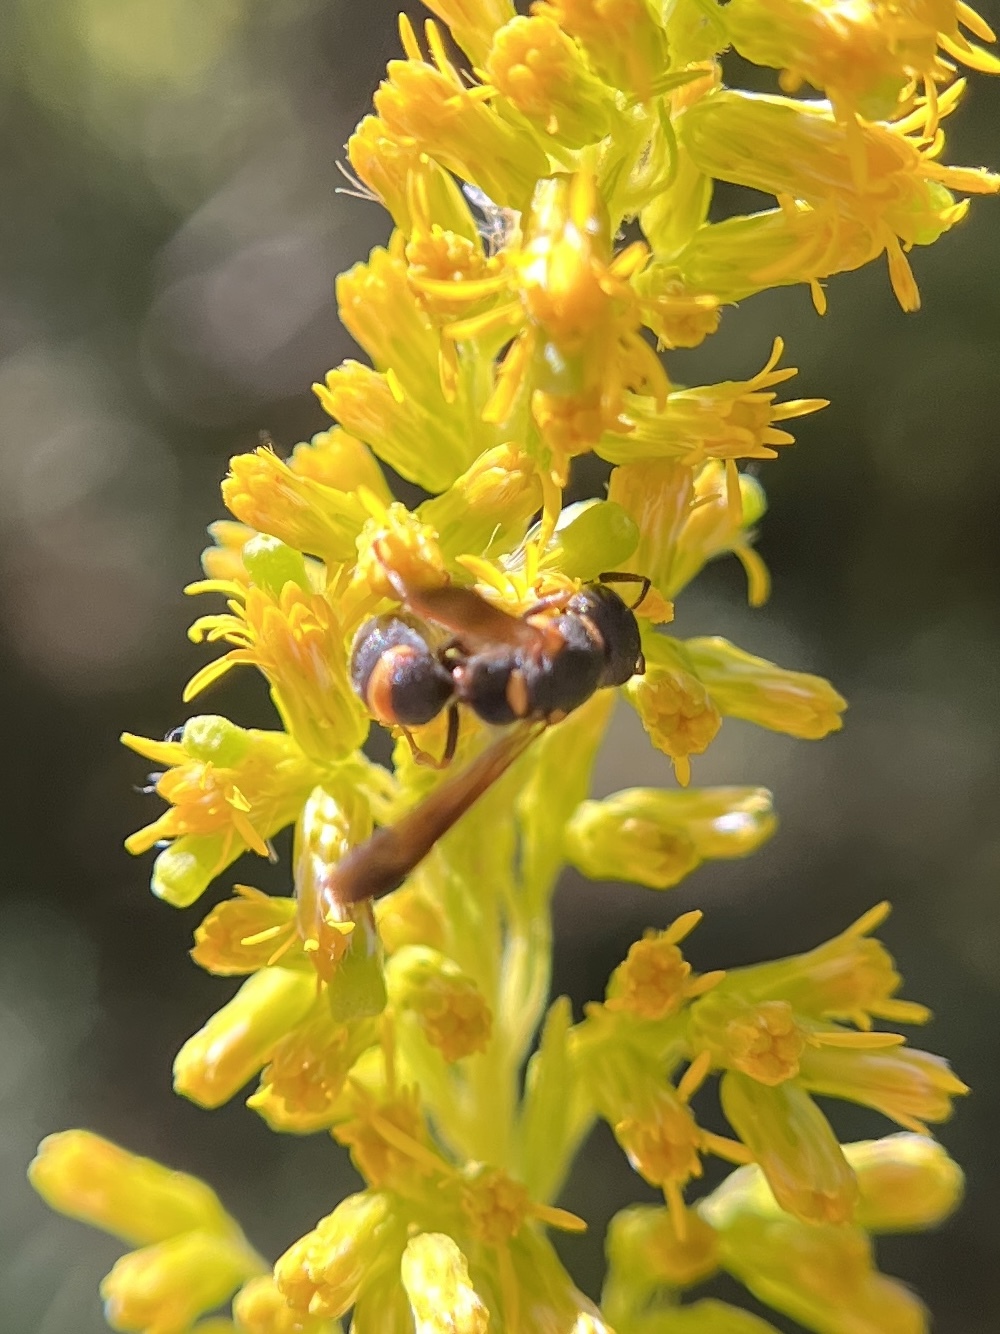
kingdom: Animalia
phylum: Arthropoda
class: Insecta
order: Hymenoptera
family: Eumenidae
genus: Parancistrocerus
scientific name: Parancistrocerus perennis
